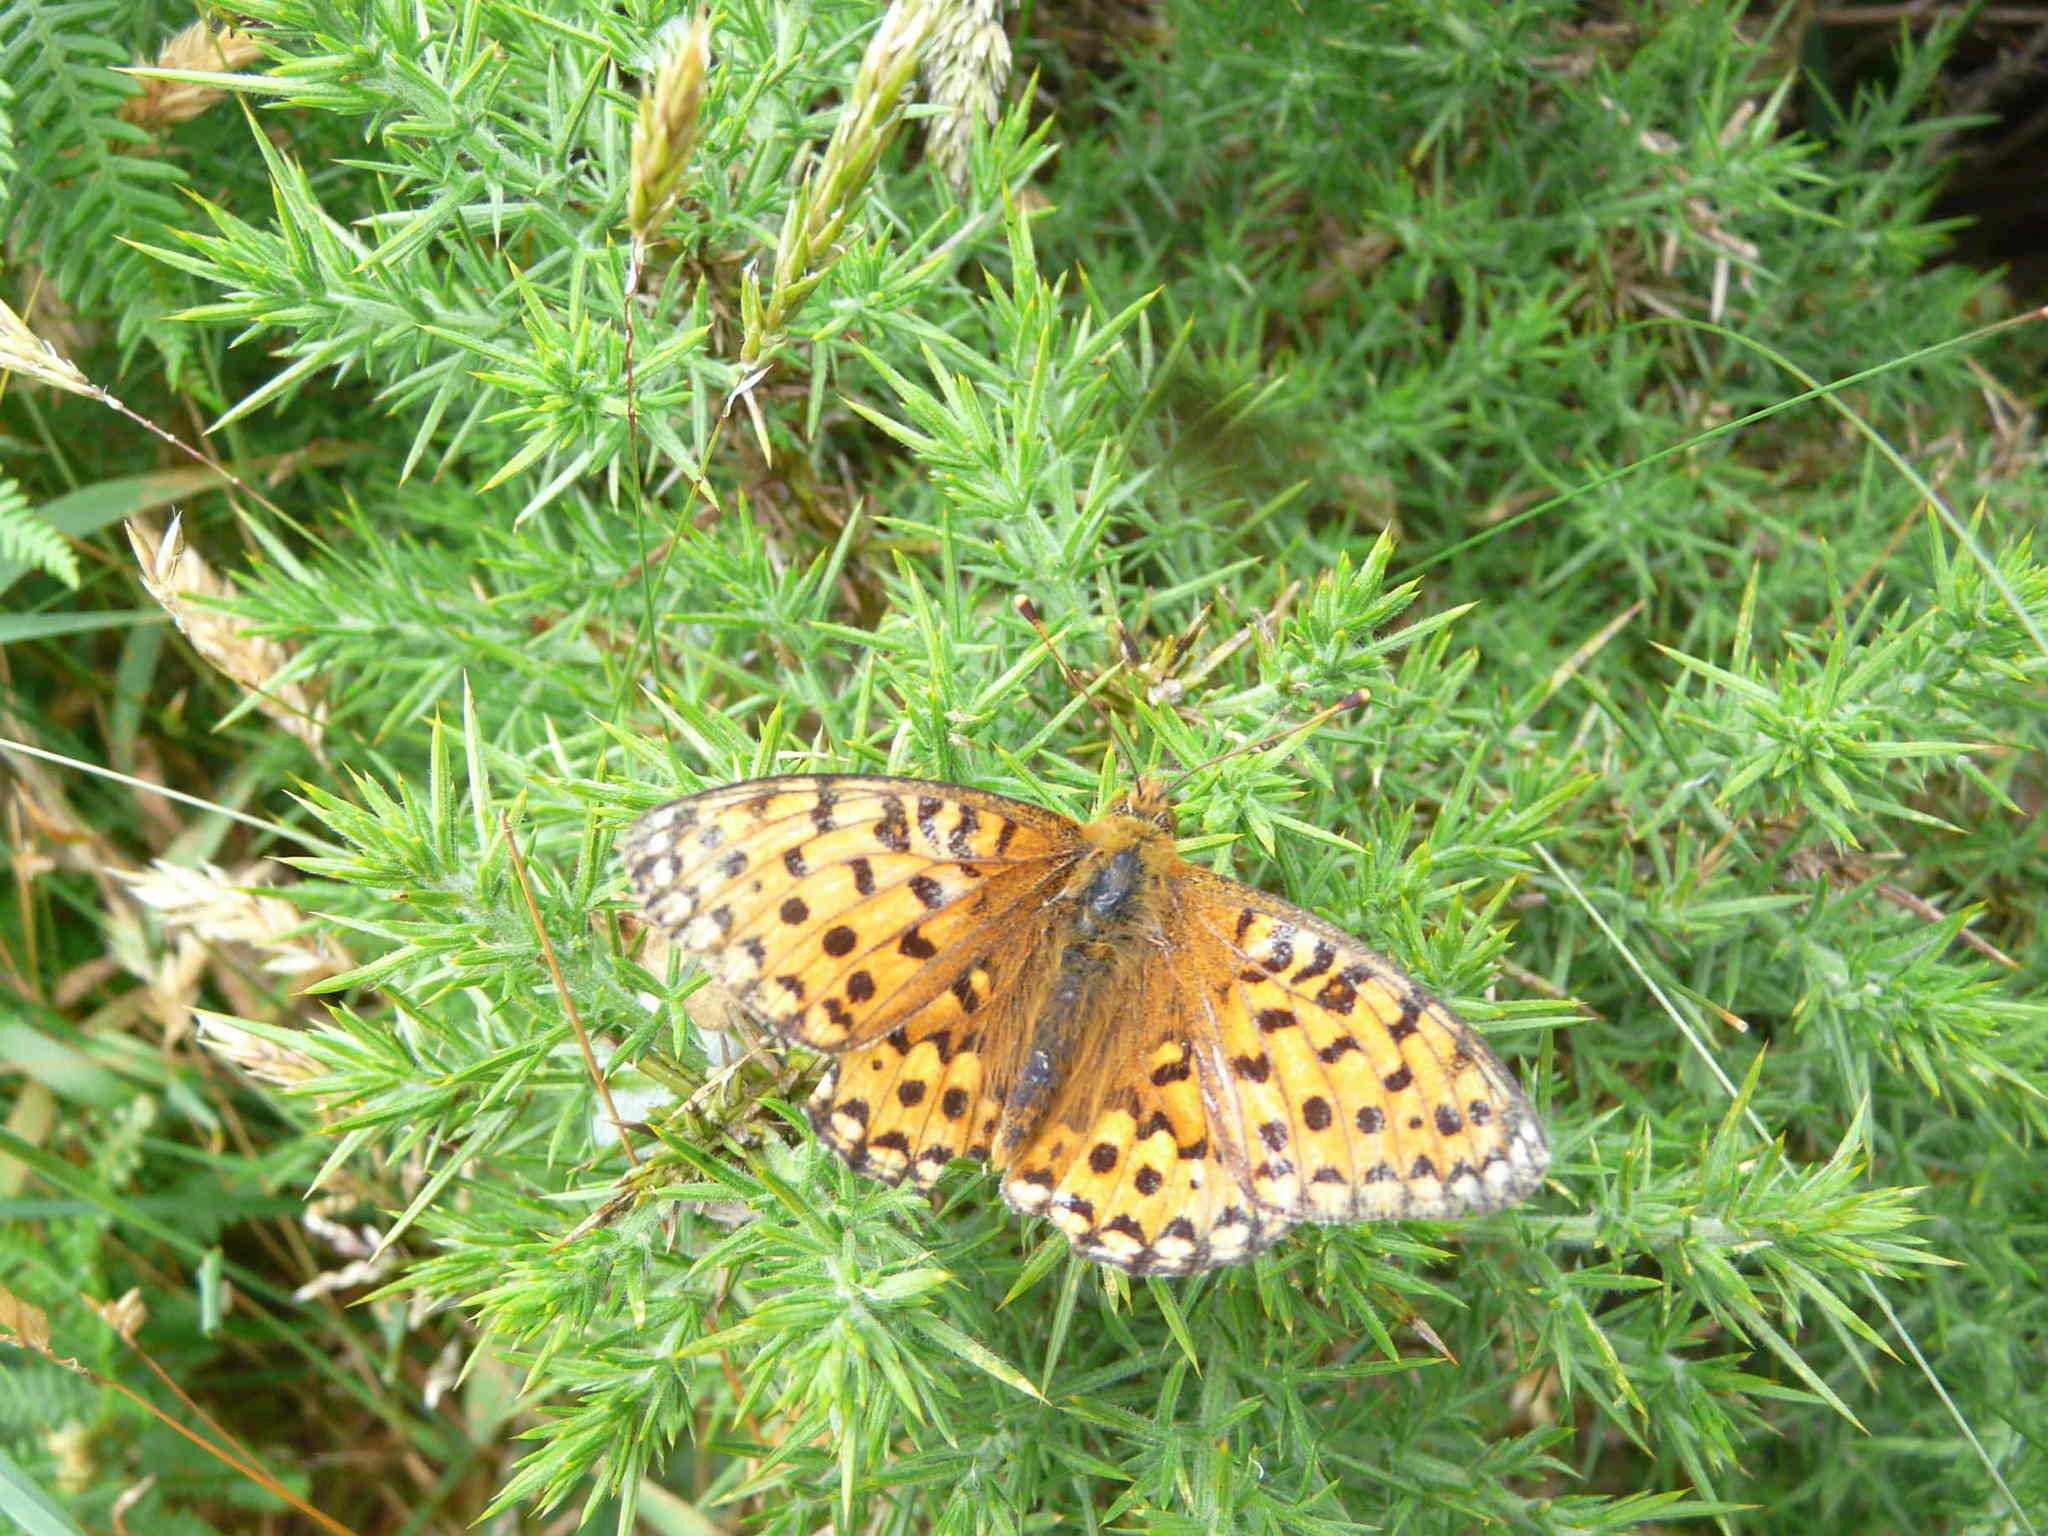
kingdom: Animalia
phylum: Arthropoda
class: Insecta
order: Lepidoptera
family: Nymphalidae
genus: Speyeria
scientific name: Speyeria aglaja
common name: Dark green fritillary
